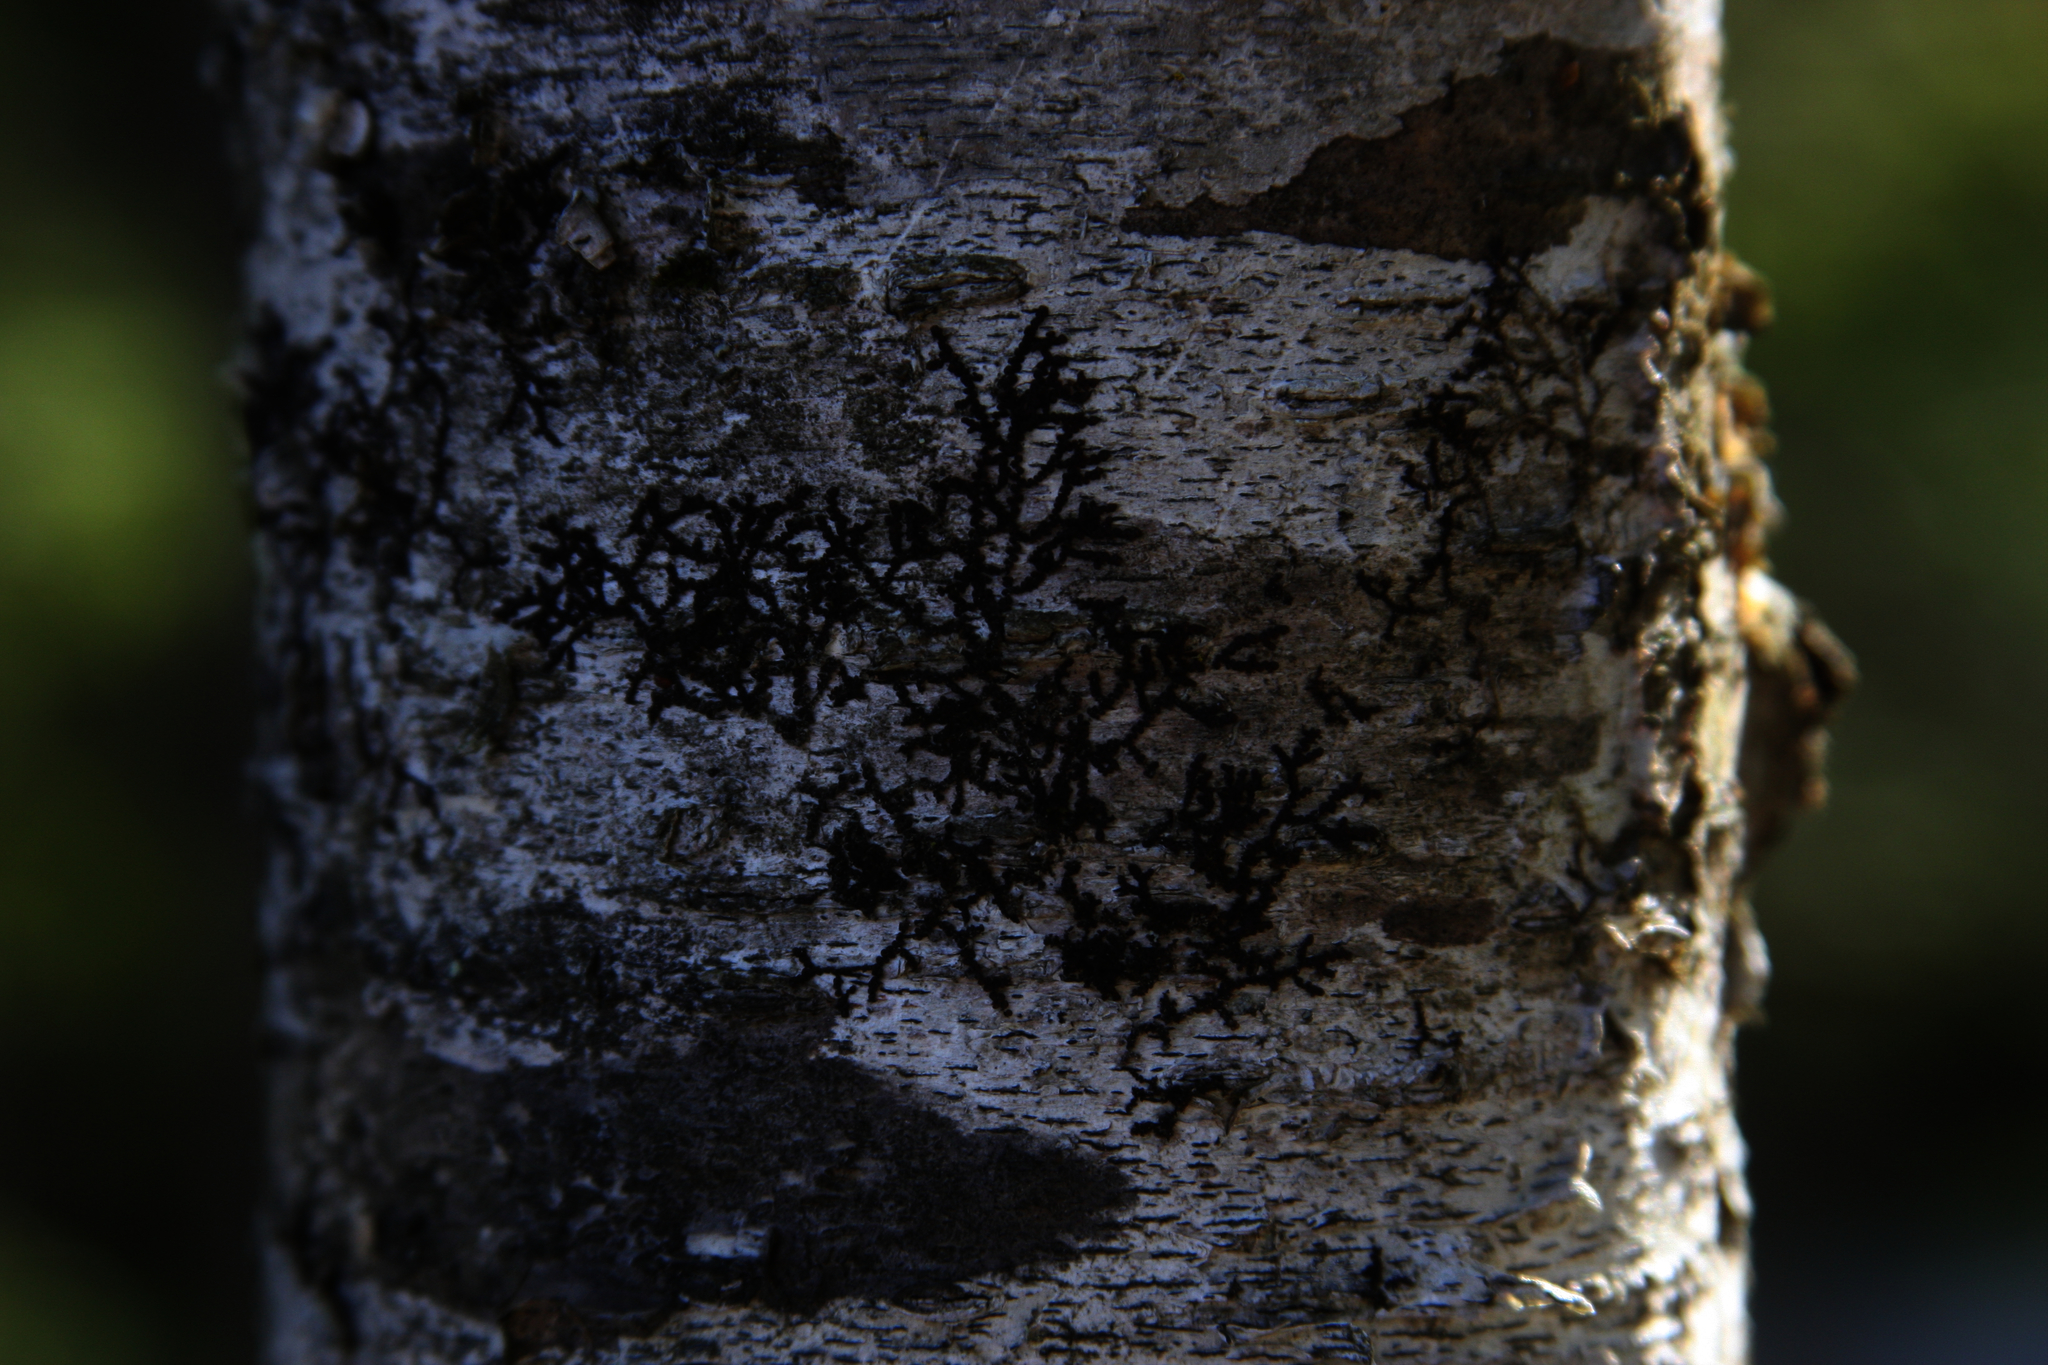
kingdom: Plantae
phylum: Marchantiophyta
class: Jungermanniopsida
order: Porellales
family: Frullaniaceae
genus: Frullania
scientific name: Frullania eboracensis
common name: New york scalewort
